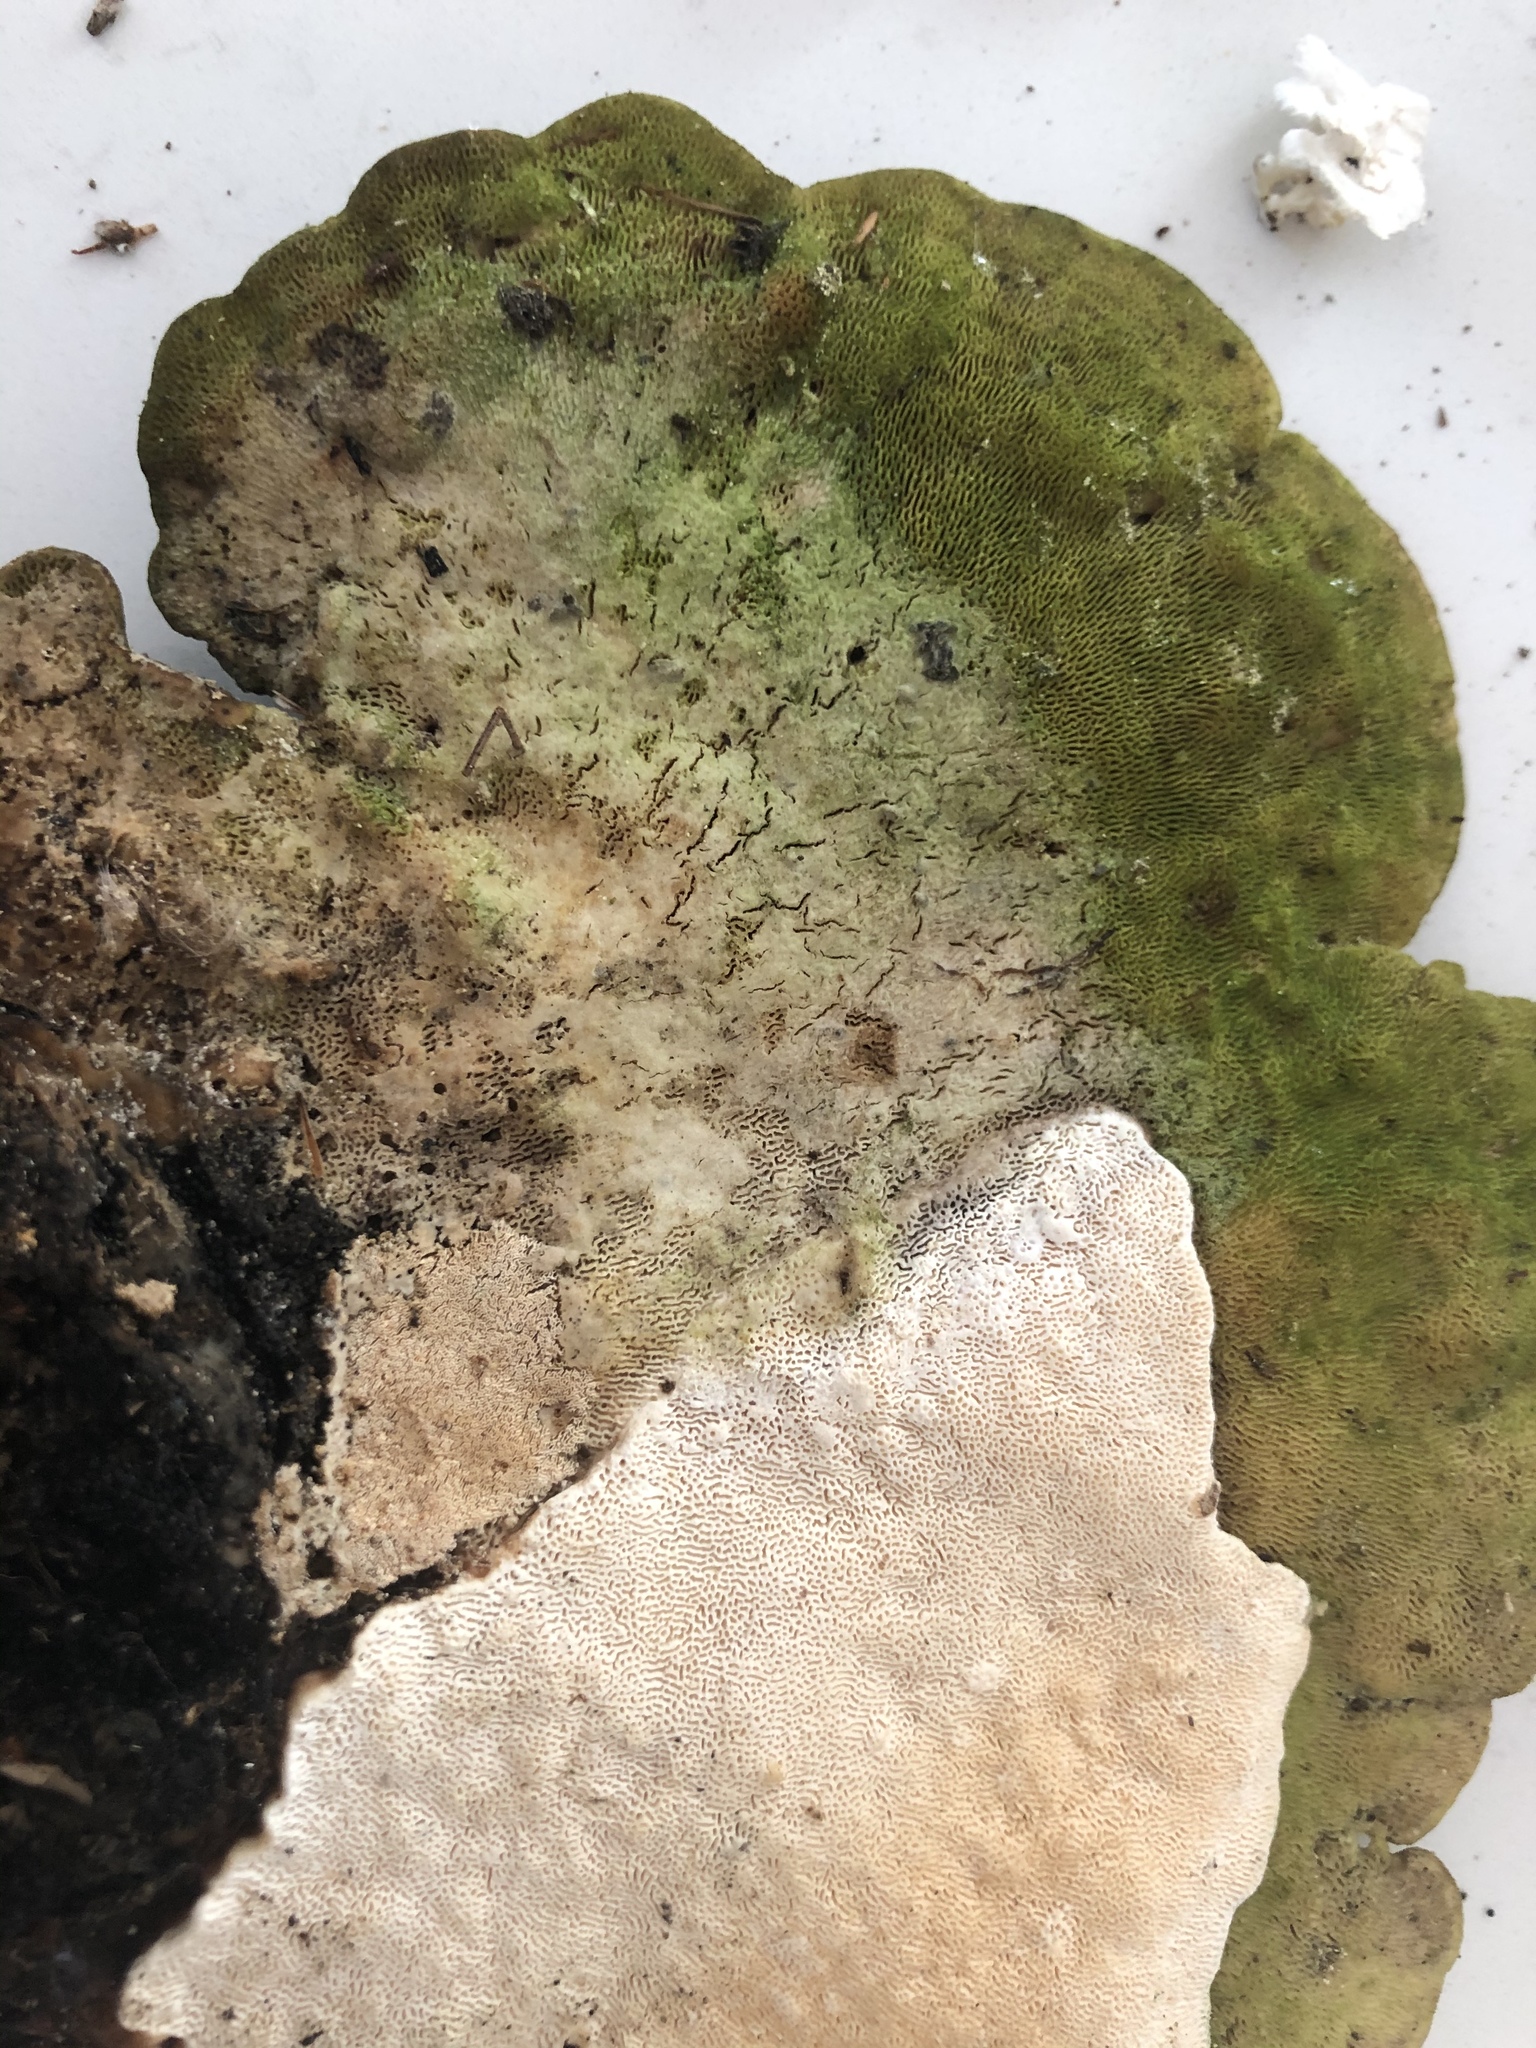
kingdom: Fungi
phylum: Basidiomycota
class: Agaricomycetes
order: Polyporales
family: Polyporaceae
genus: Trametes
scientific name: Trametes gibbosa
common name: Lumpy bracket
